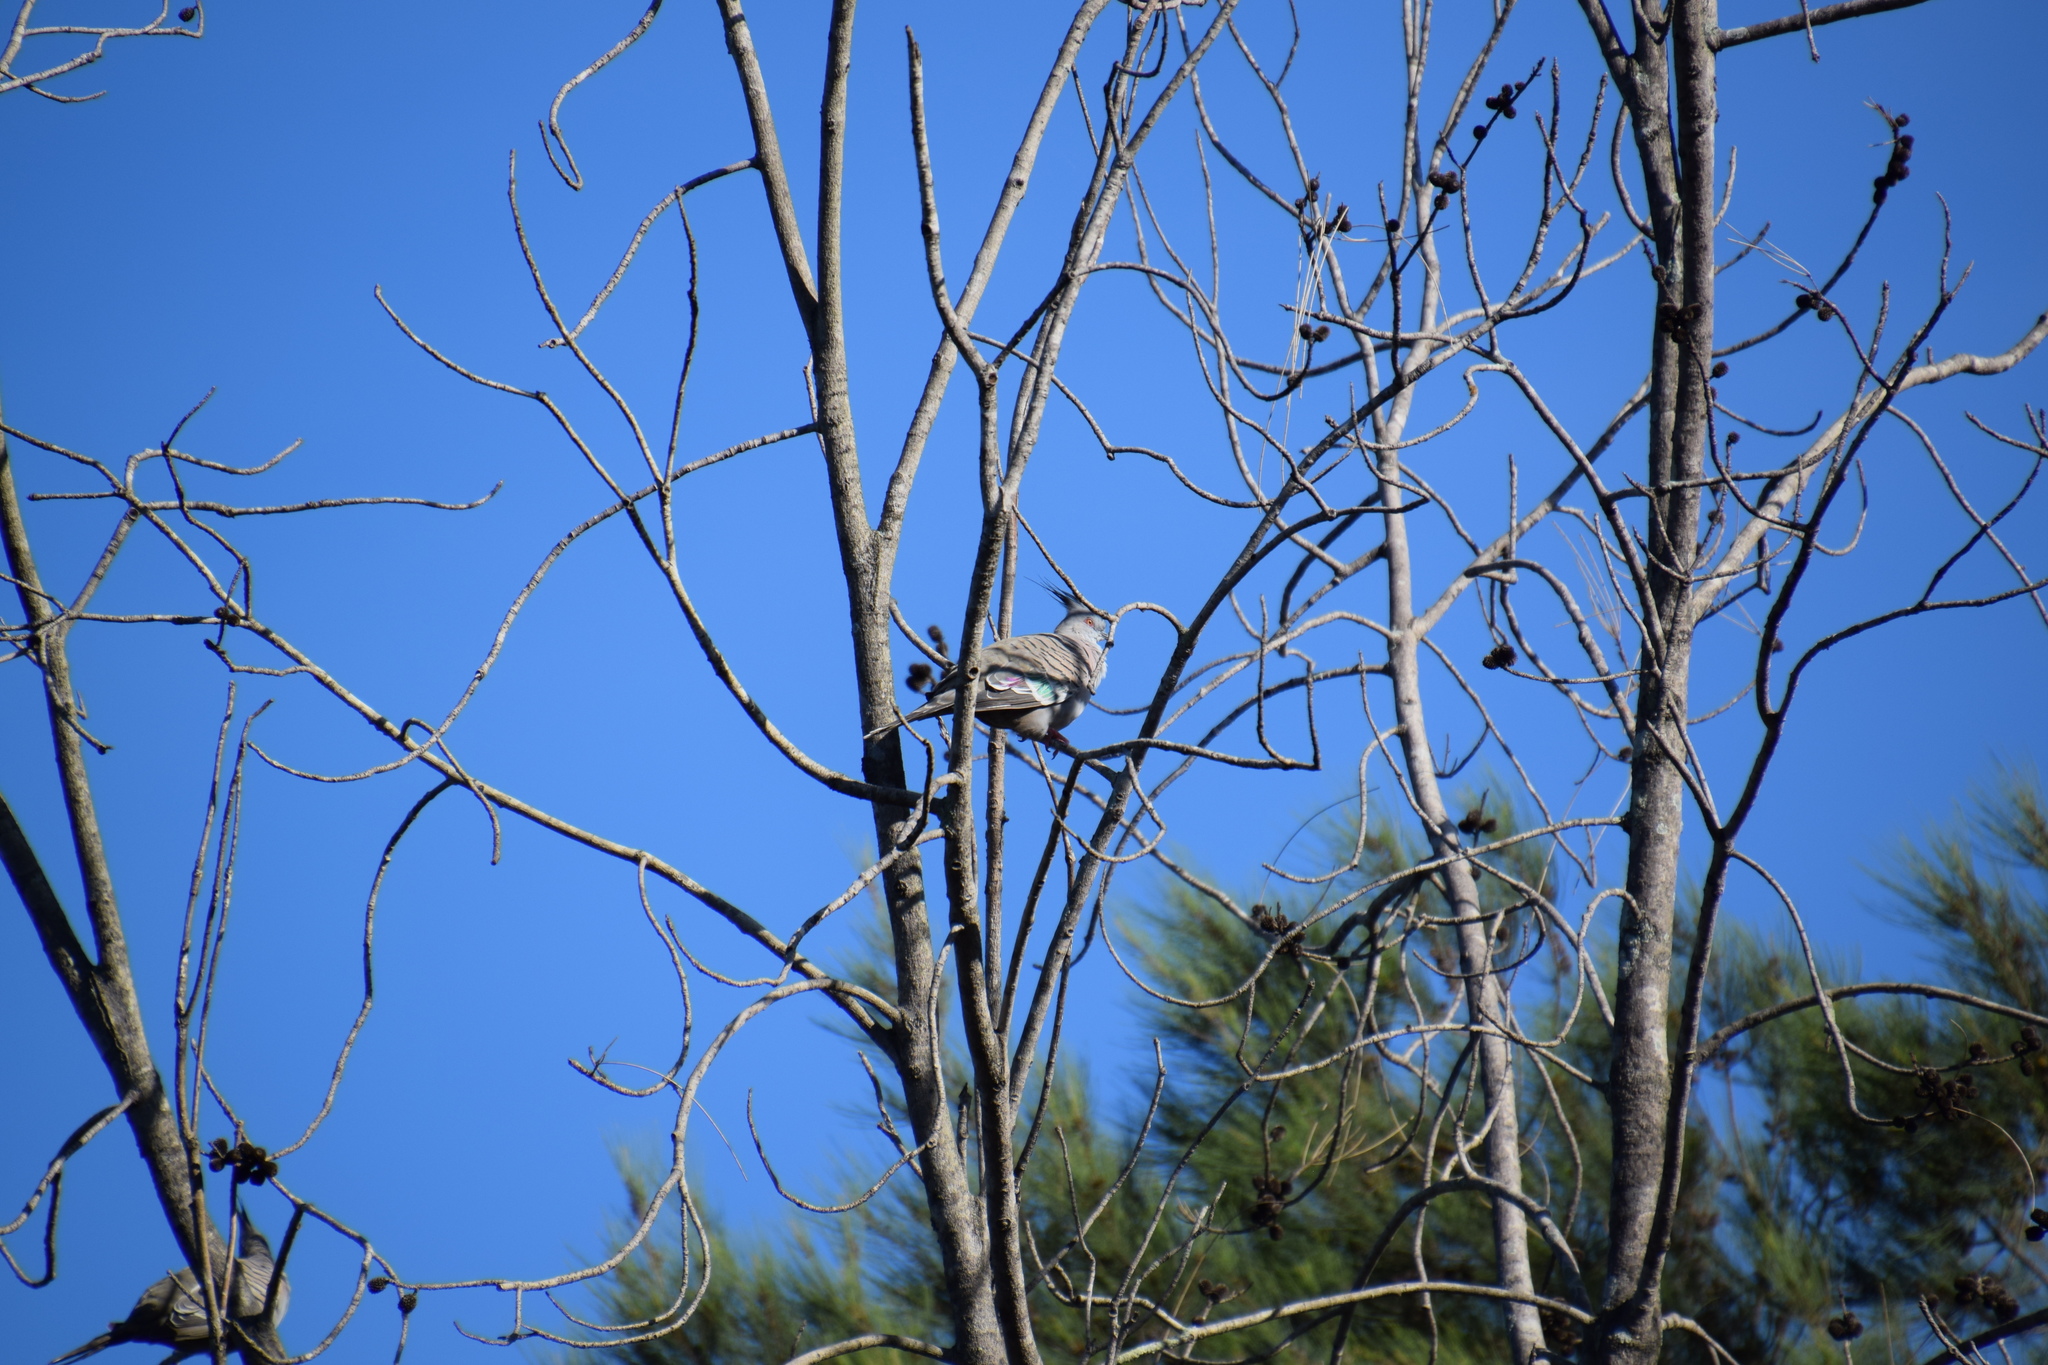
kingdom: Animalia
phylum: Chordata
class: Aves
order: Columbiformes
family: Columbidae
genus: Ocyphaps
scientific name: Ocyphaps lophotes
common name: Crested pigeon
